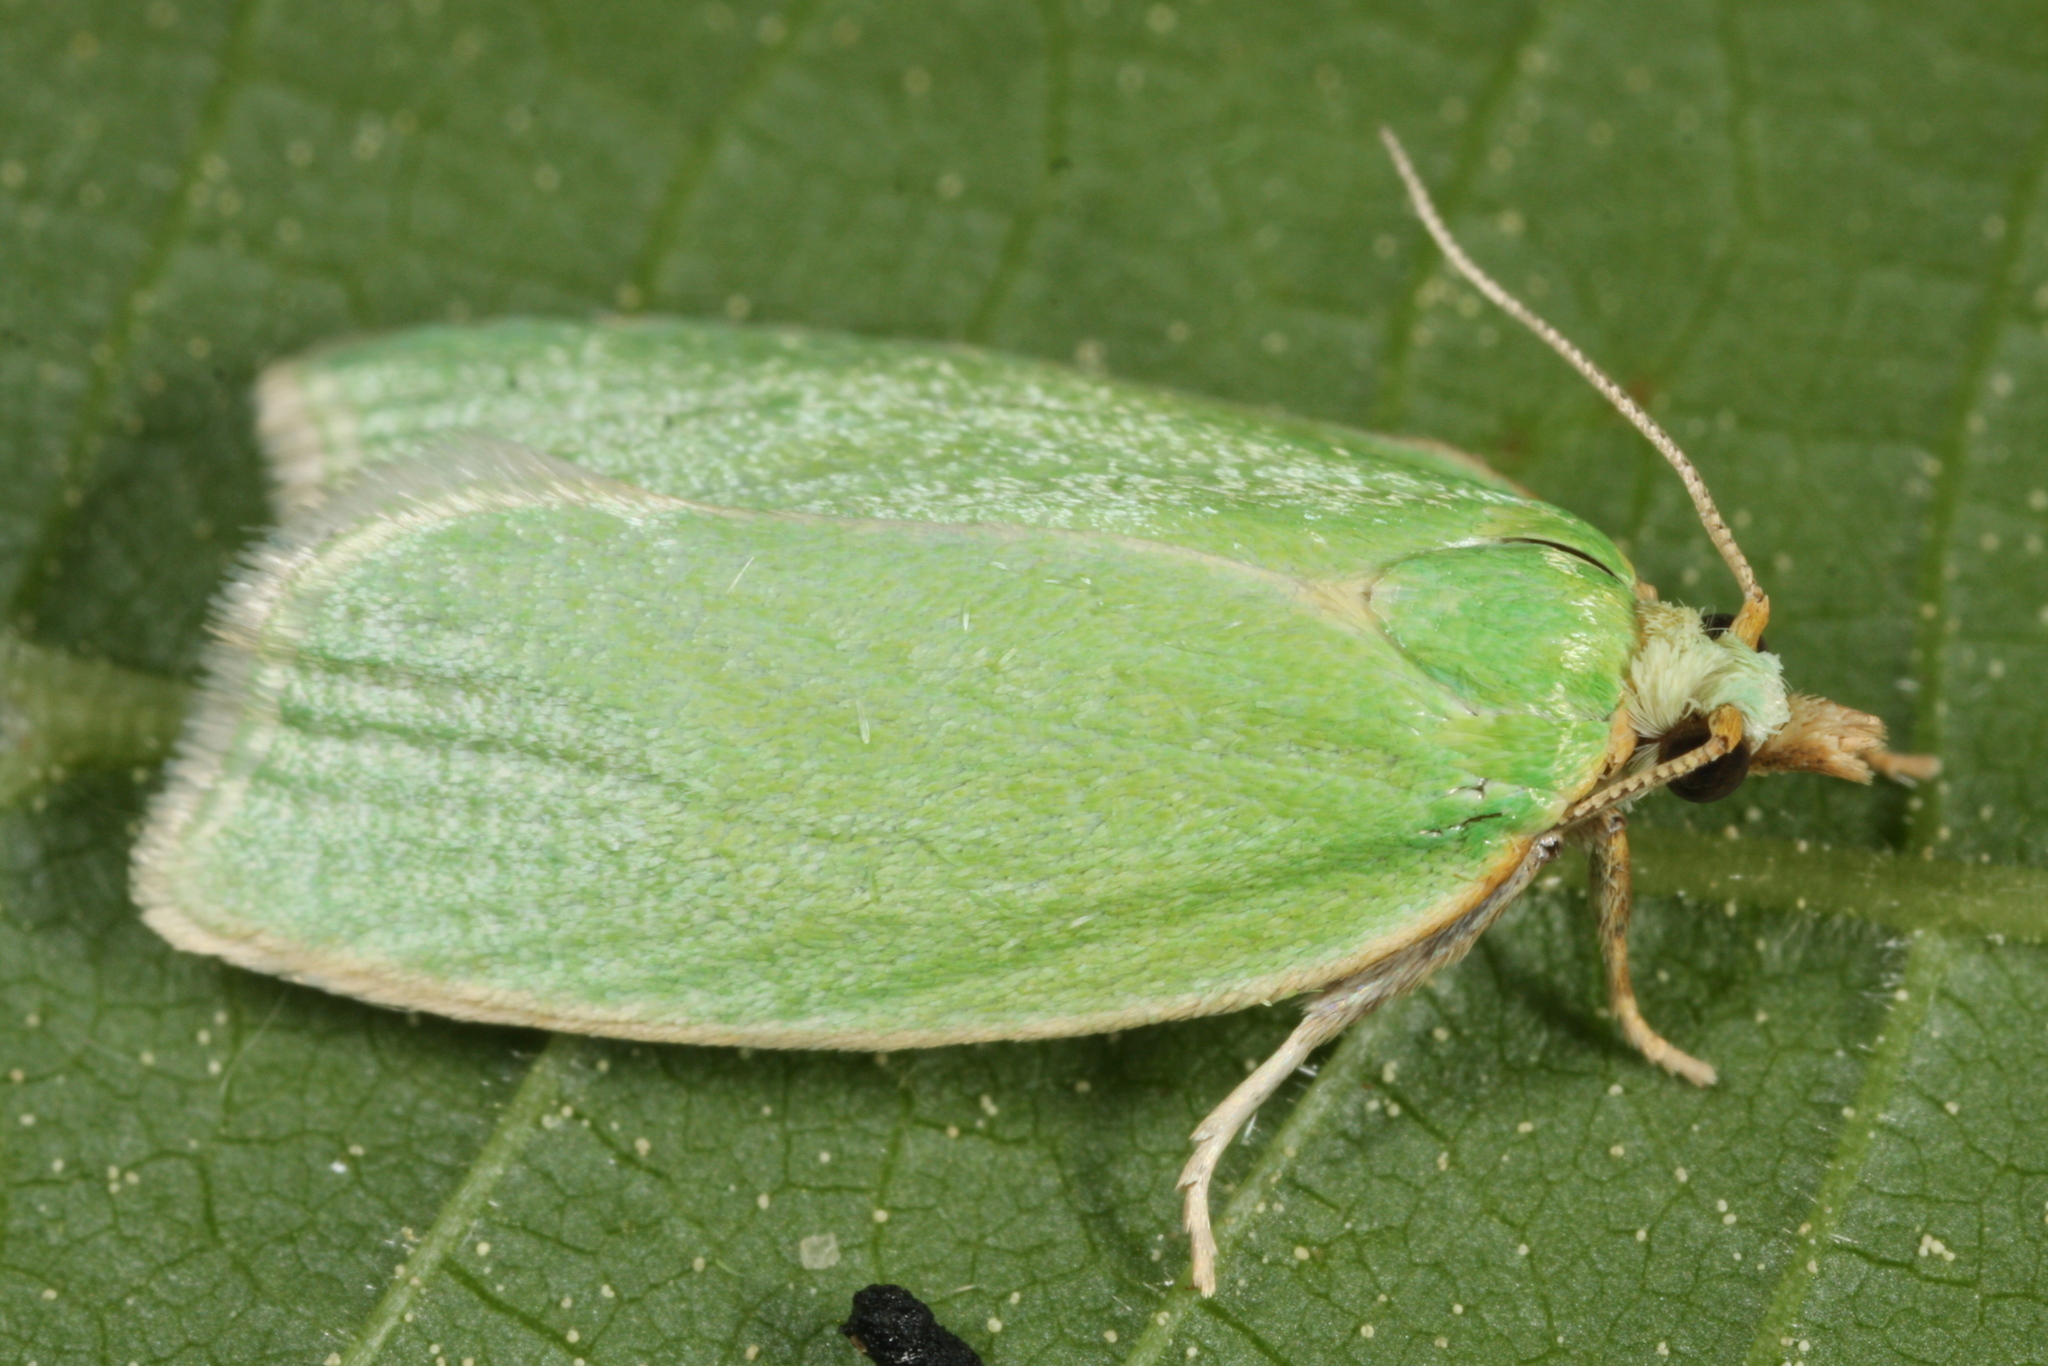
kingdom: Animalia
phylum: Arthropoda
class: Insecta
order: Lepidoptera
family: Tortricidae
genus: Tortrix
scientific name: Tortrix viridana
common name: Green oak tortrix
